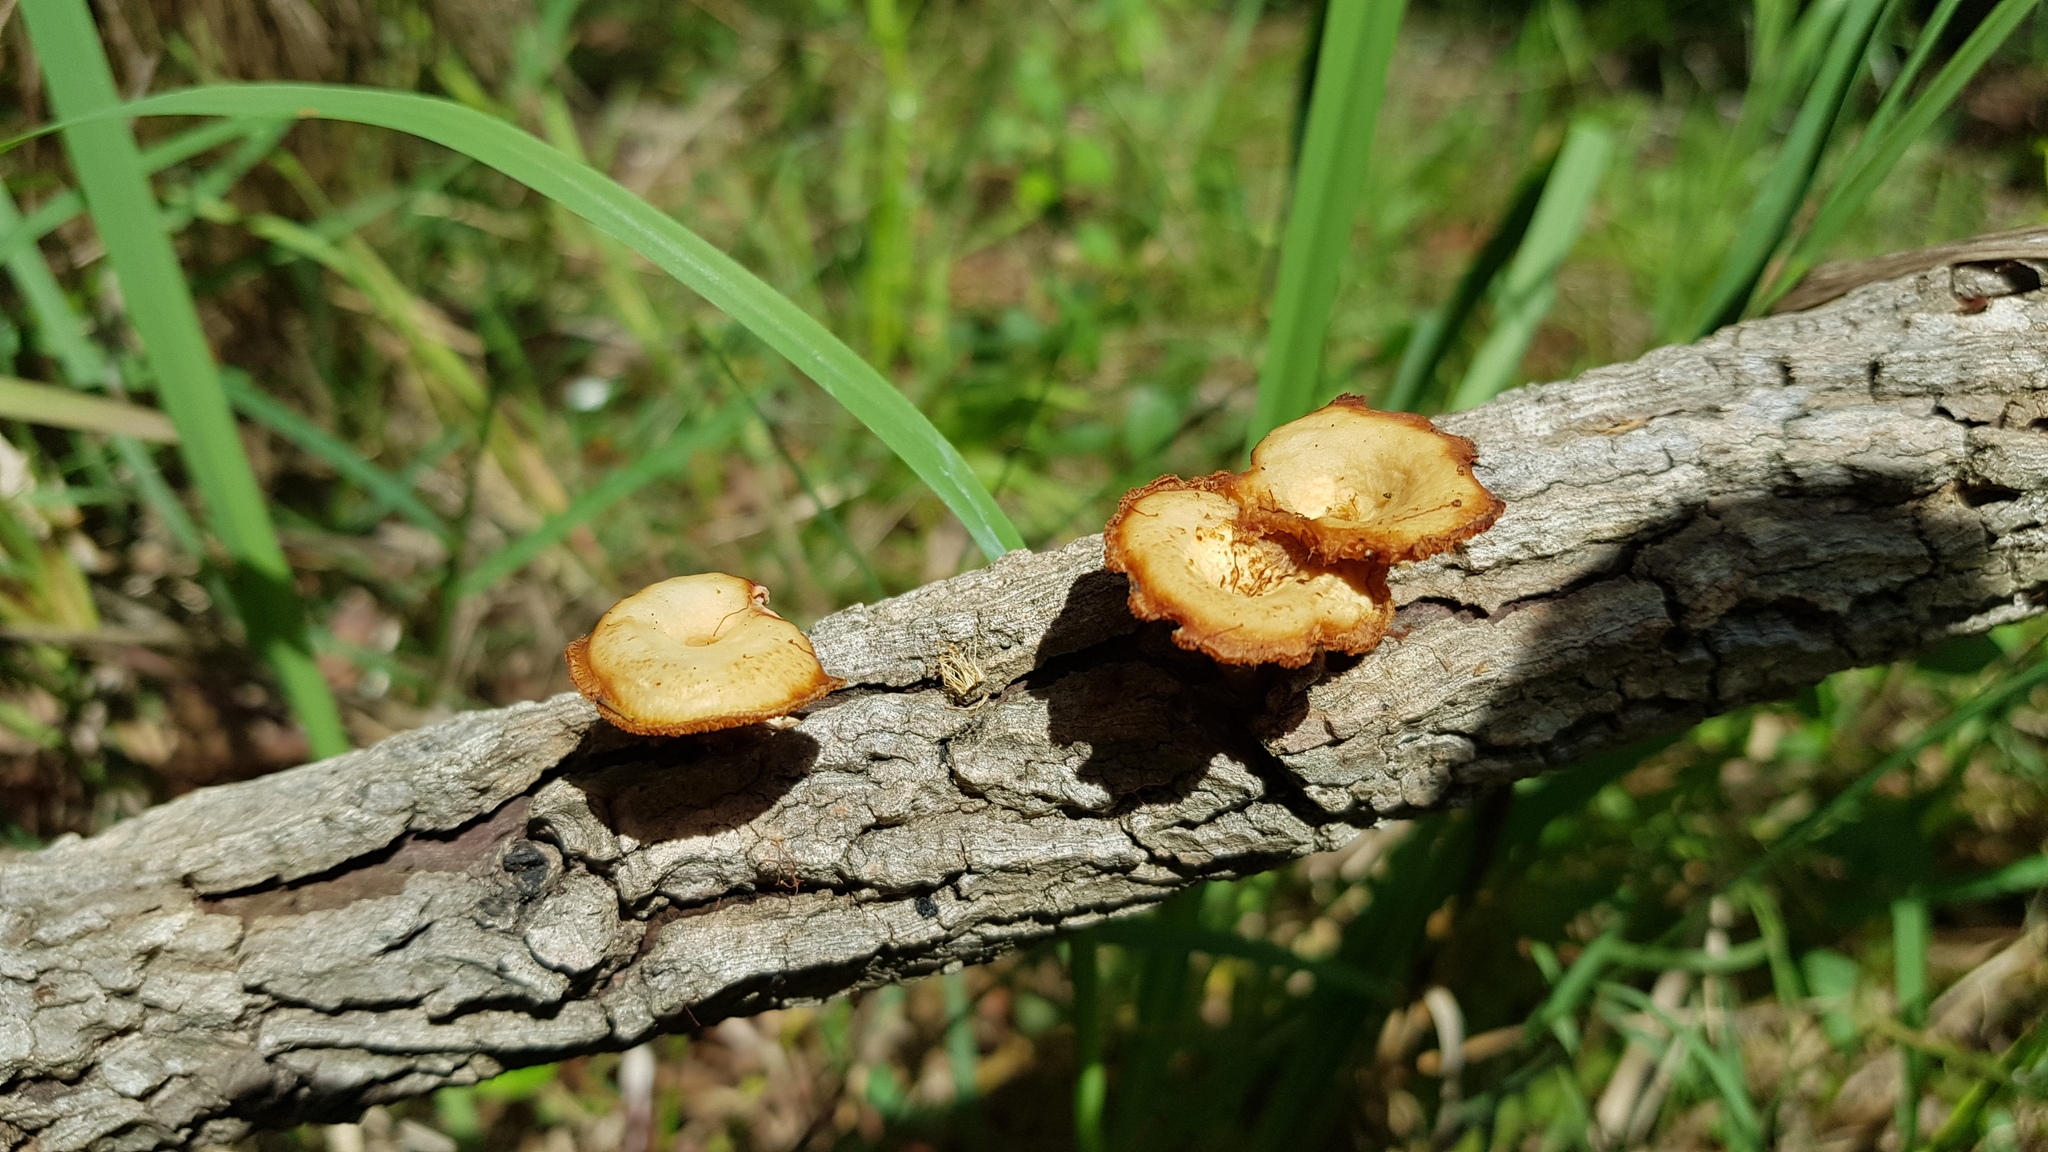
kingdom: Fungi
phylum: Basidiomycota
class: Agaricomycetes
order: Polyporales
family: Polyporaceae
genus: Lentinus
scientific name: Lentinus arcularius
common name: Spring polypore
